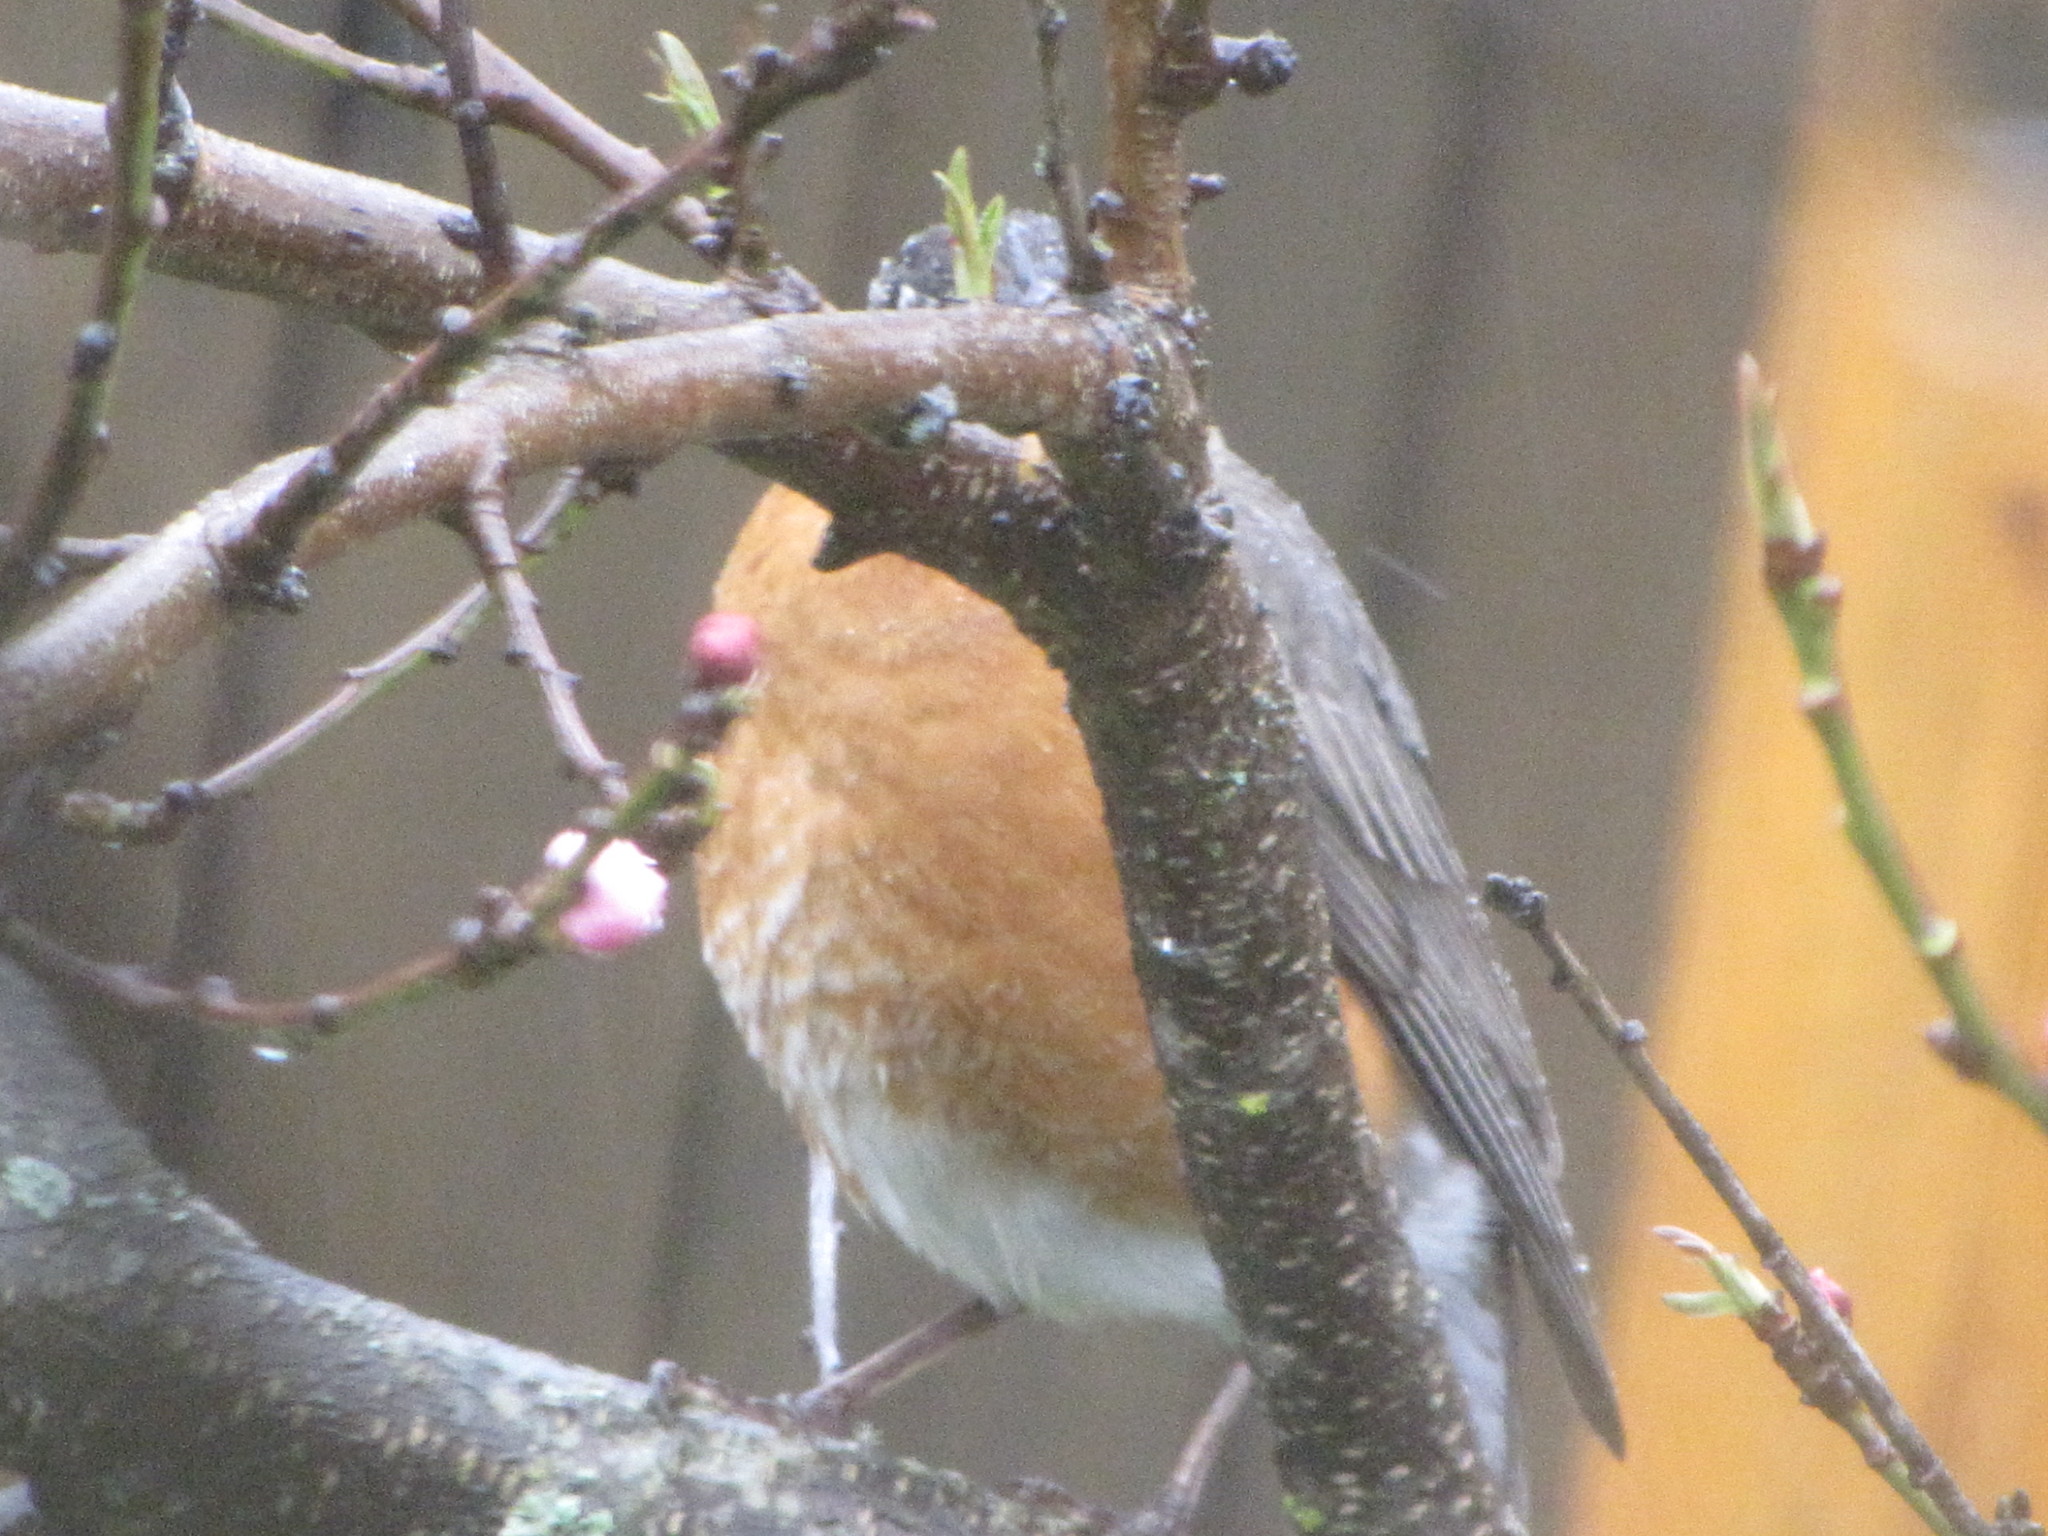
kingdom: Animalia
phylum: Chordata
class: Aves
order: Passeriformes
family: Turdidae
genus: Turdus
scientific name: Turdus migratorius
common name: American robin
